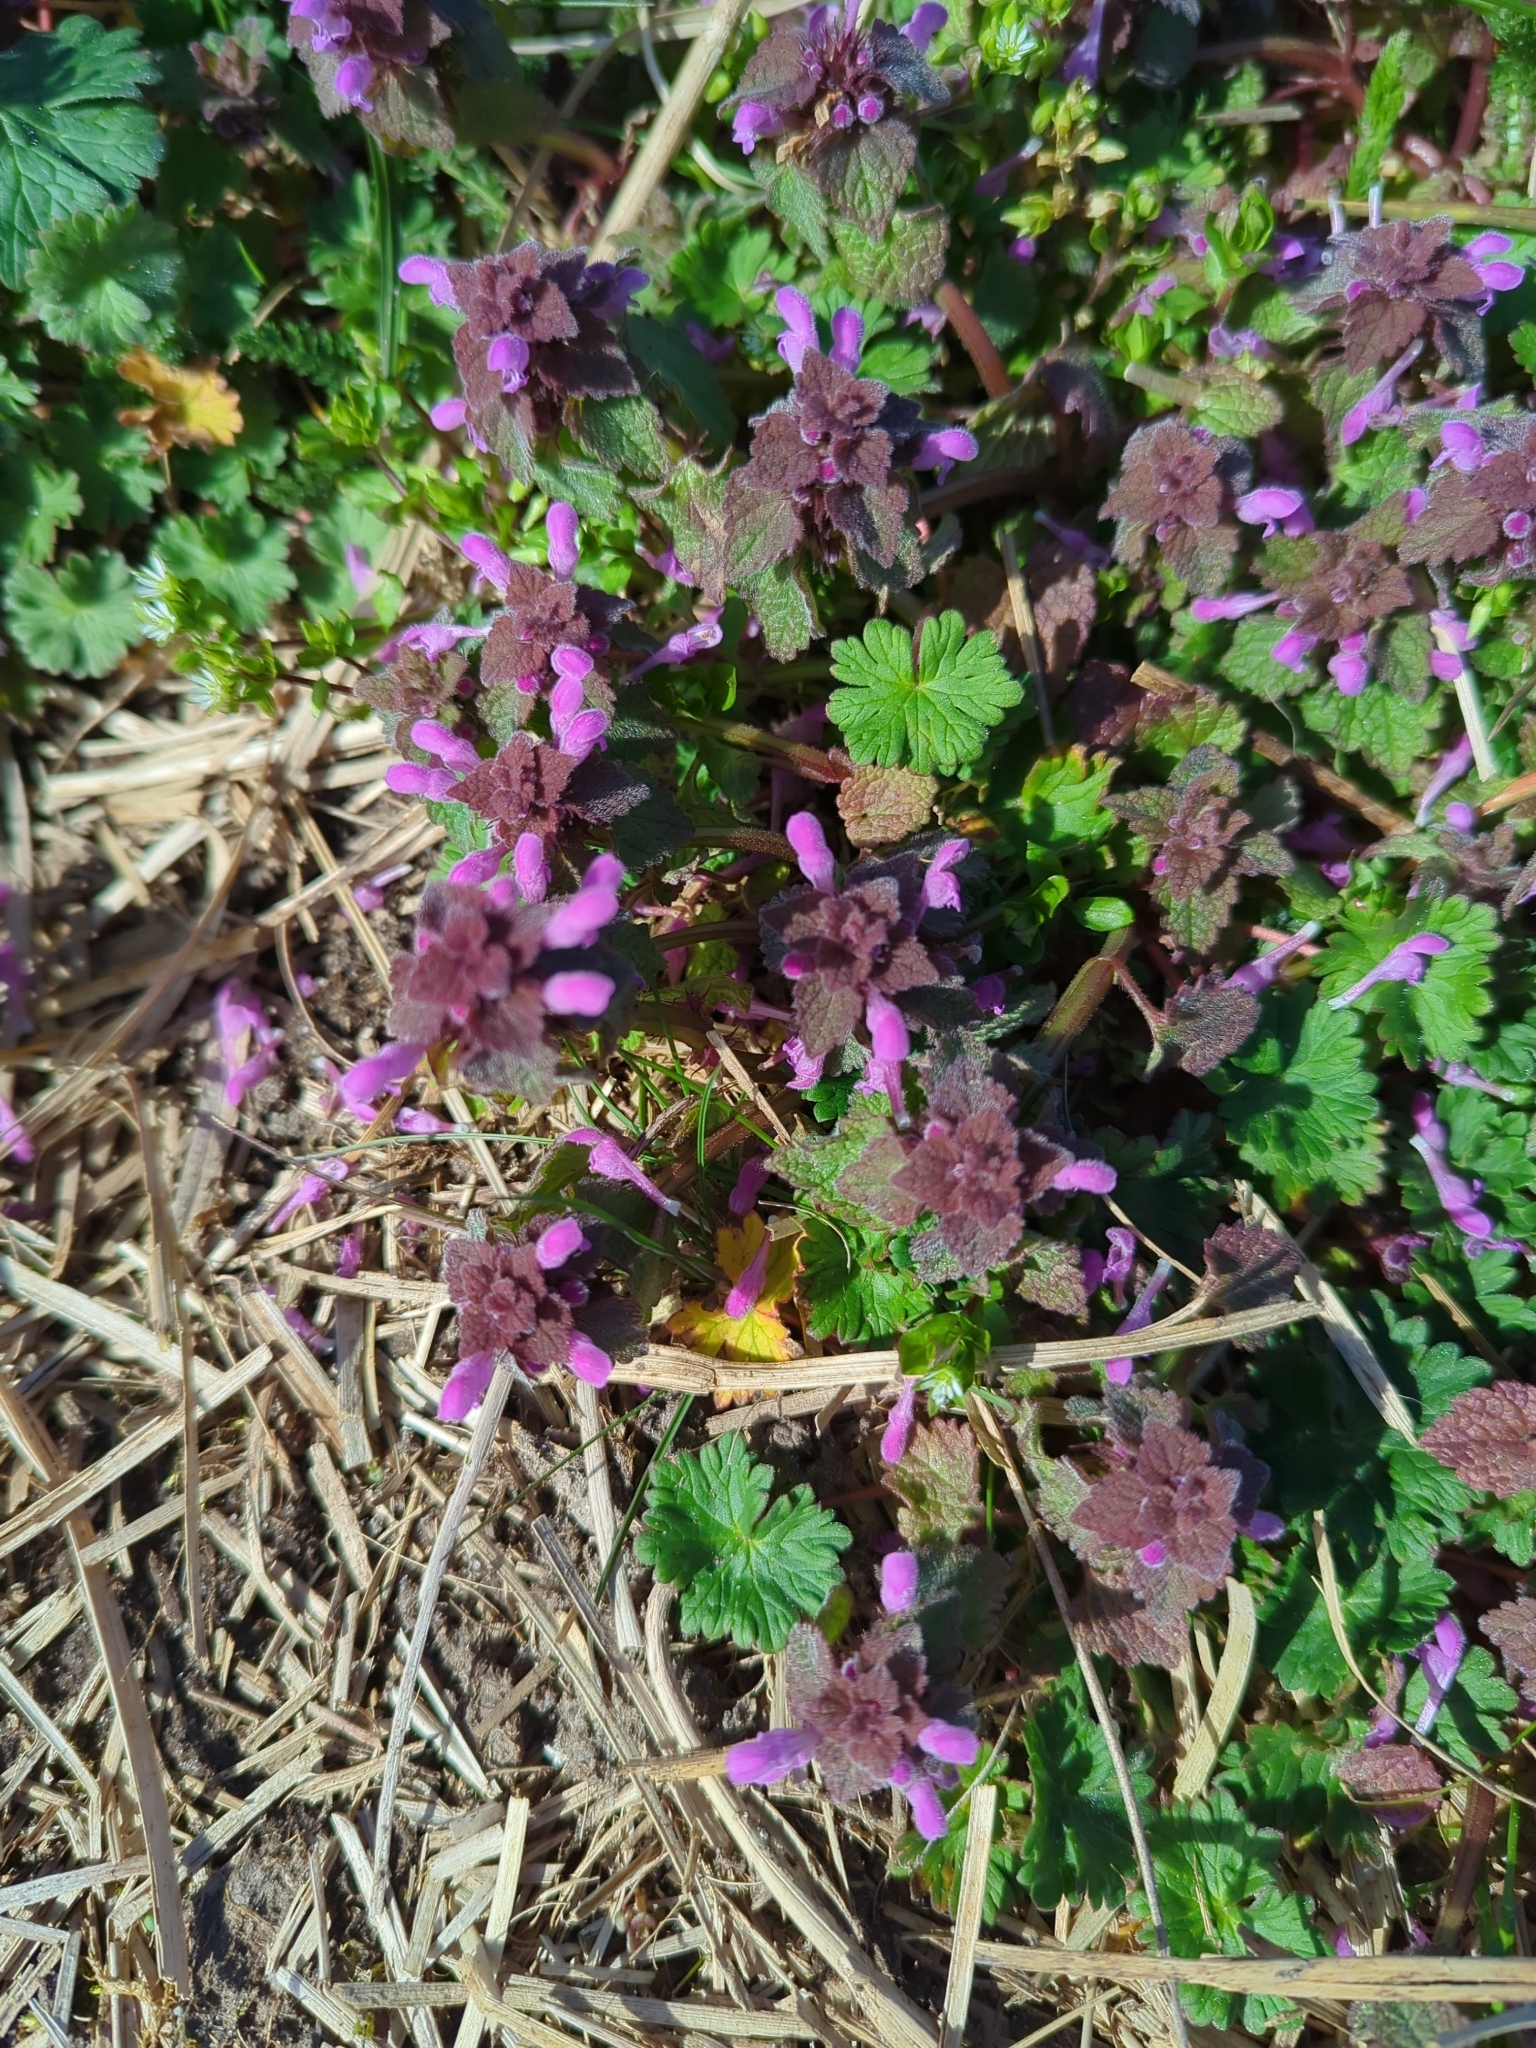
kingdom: Plantae
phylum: Tracheophyta
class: Magnoliopsida
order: Lamiales
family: Lamiaceae
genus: Lamium
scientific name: Lamium purpureum
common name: Red dead-nettle
